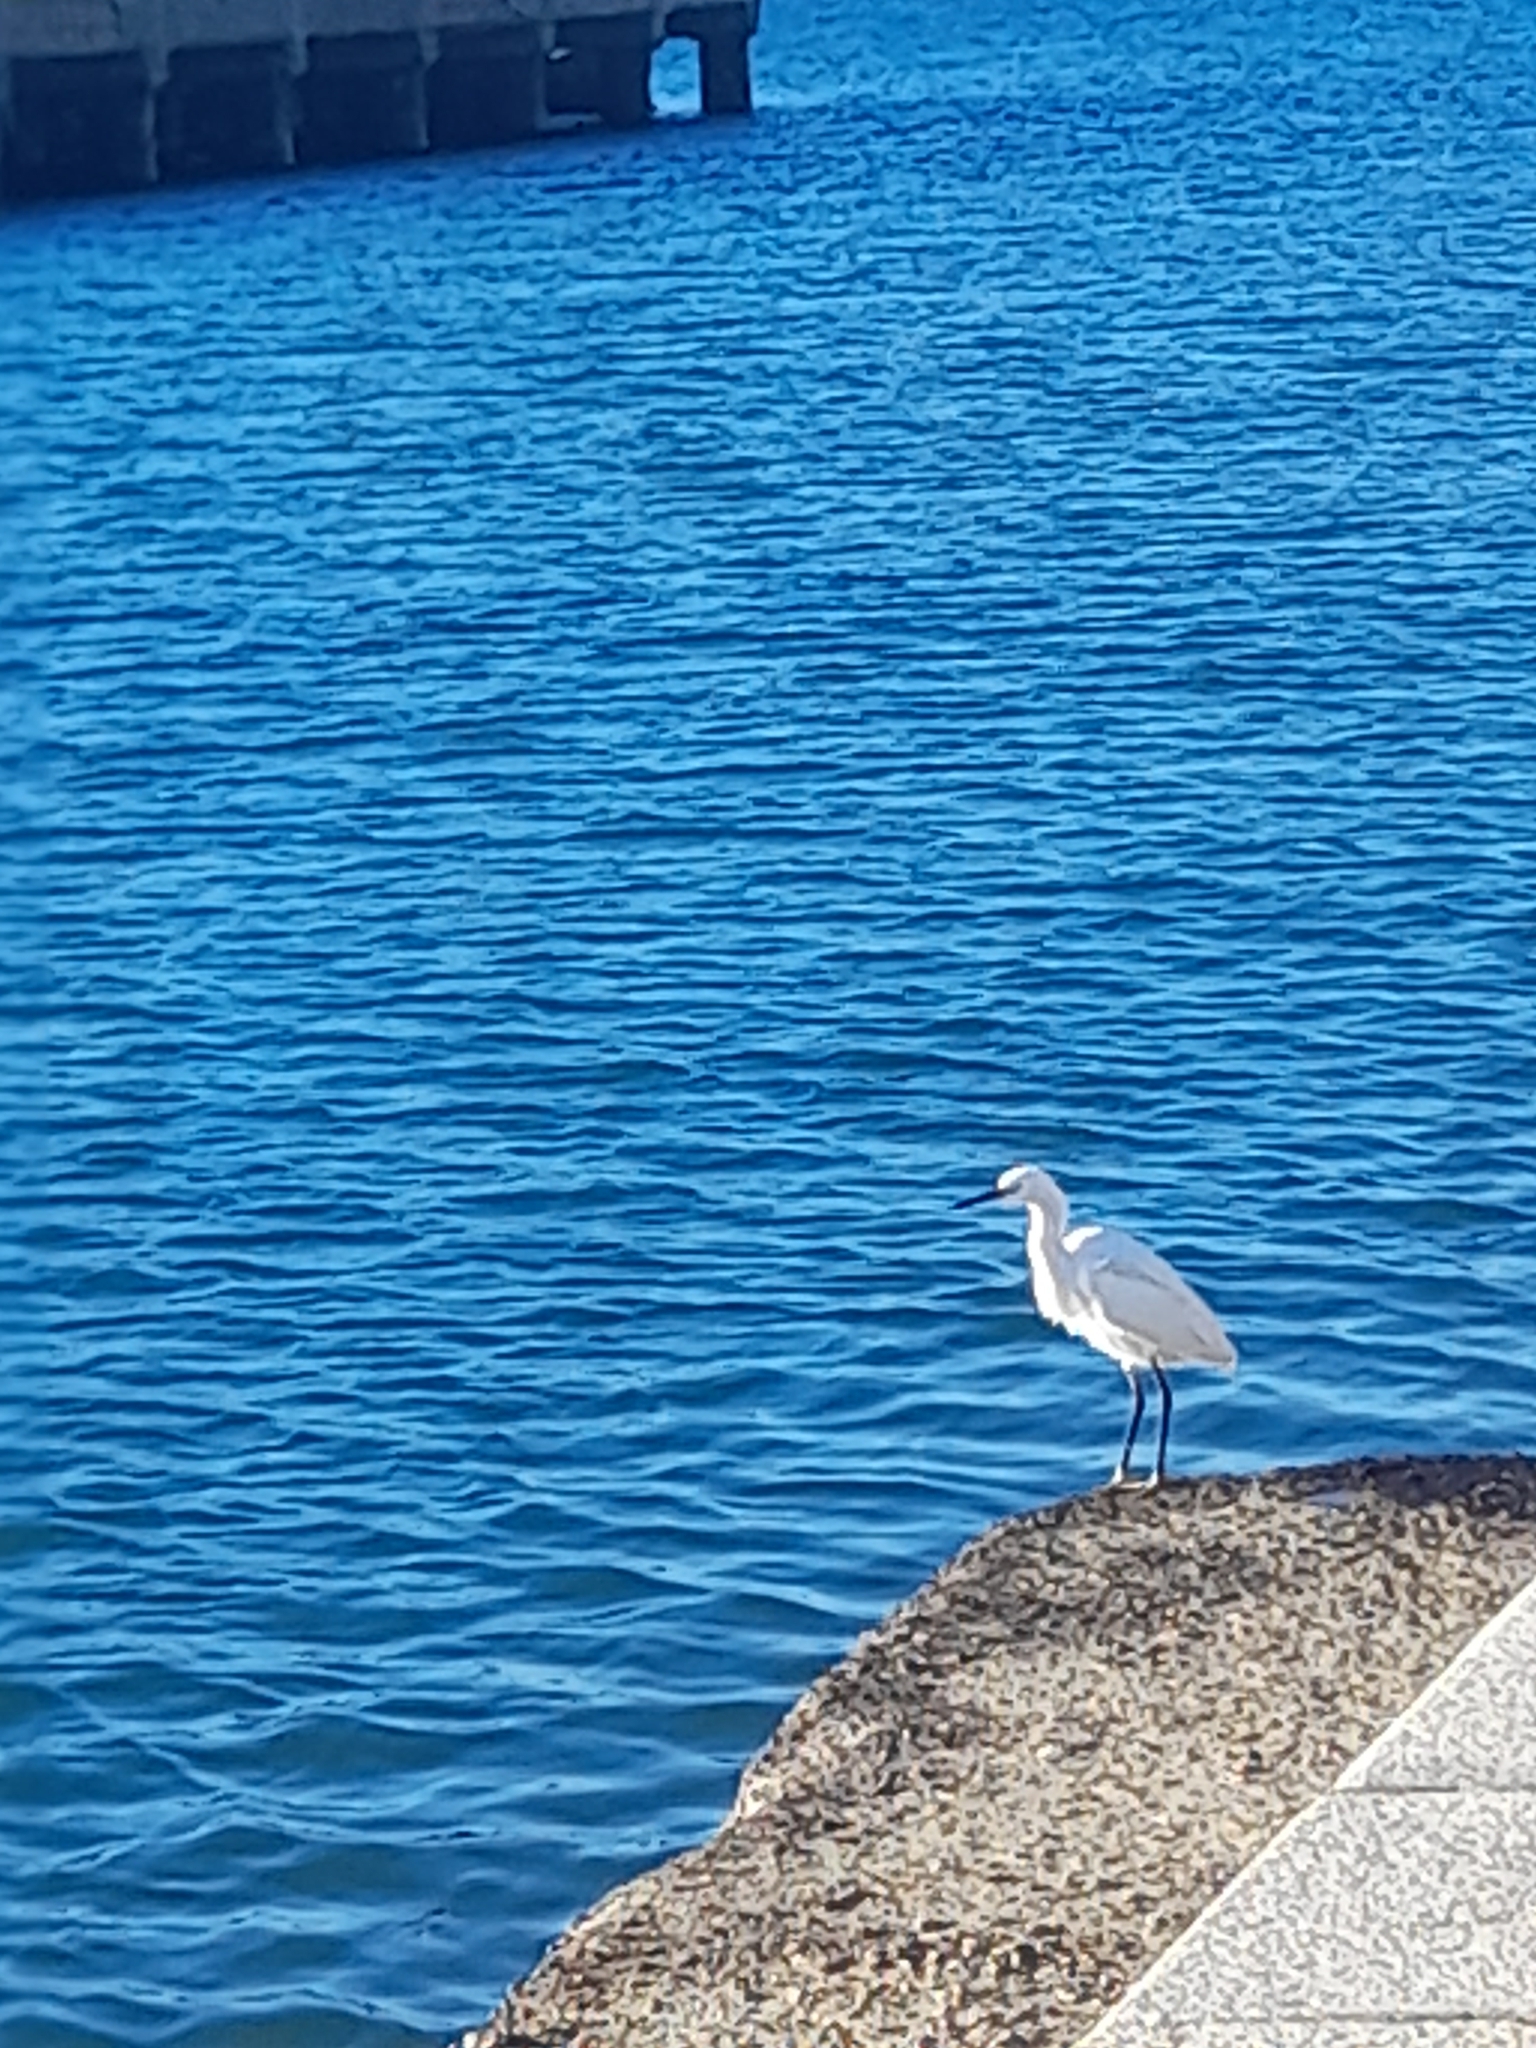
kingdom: Animalia
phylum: Chordata
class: Aves
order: Pelecaniformes
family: Ardeidae
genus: Egretta
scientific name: Egretta garzetta
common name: Little egret
